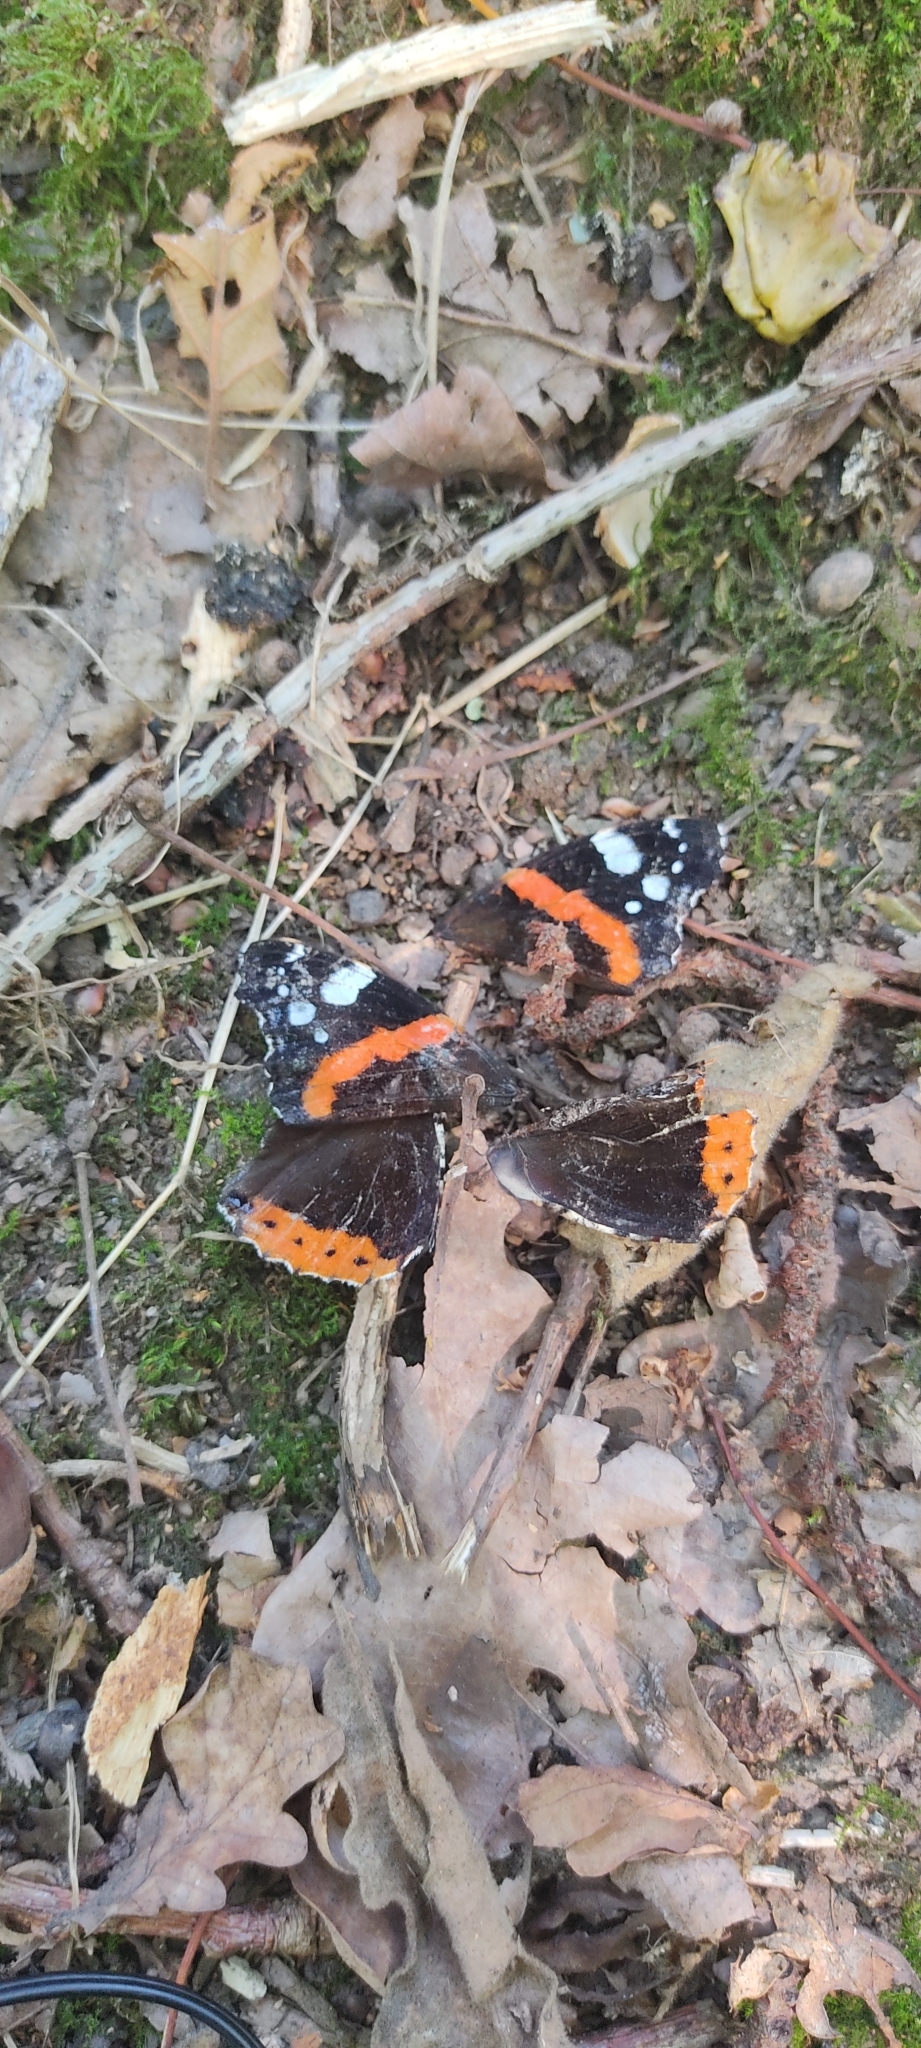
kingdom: Animalia
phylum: Arthropoda
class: Insecta
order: Lepidoptera
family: Nymphalidae
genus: Vanessa
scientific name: Vanessa atalanta
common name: Red admiral
